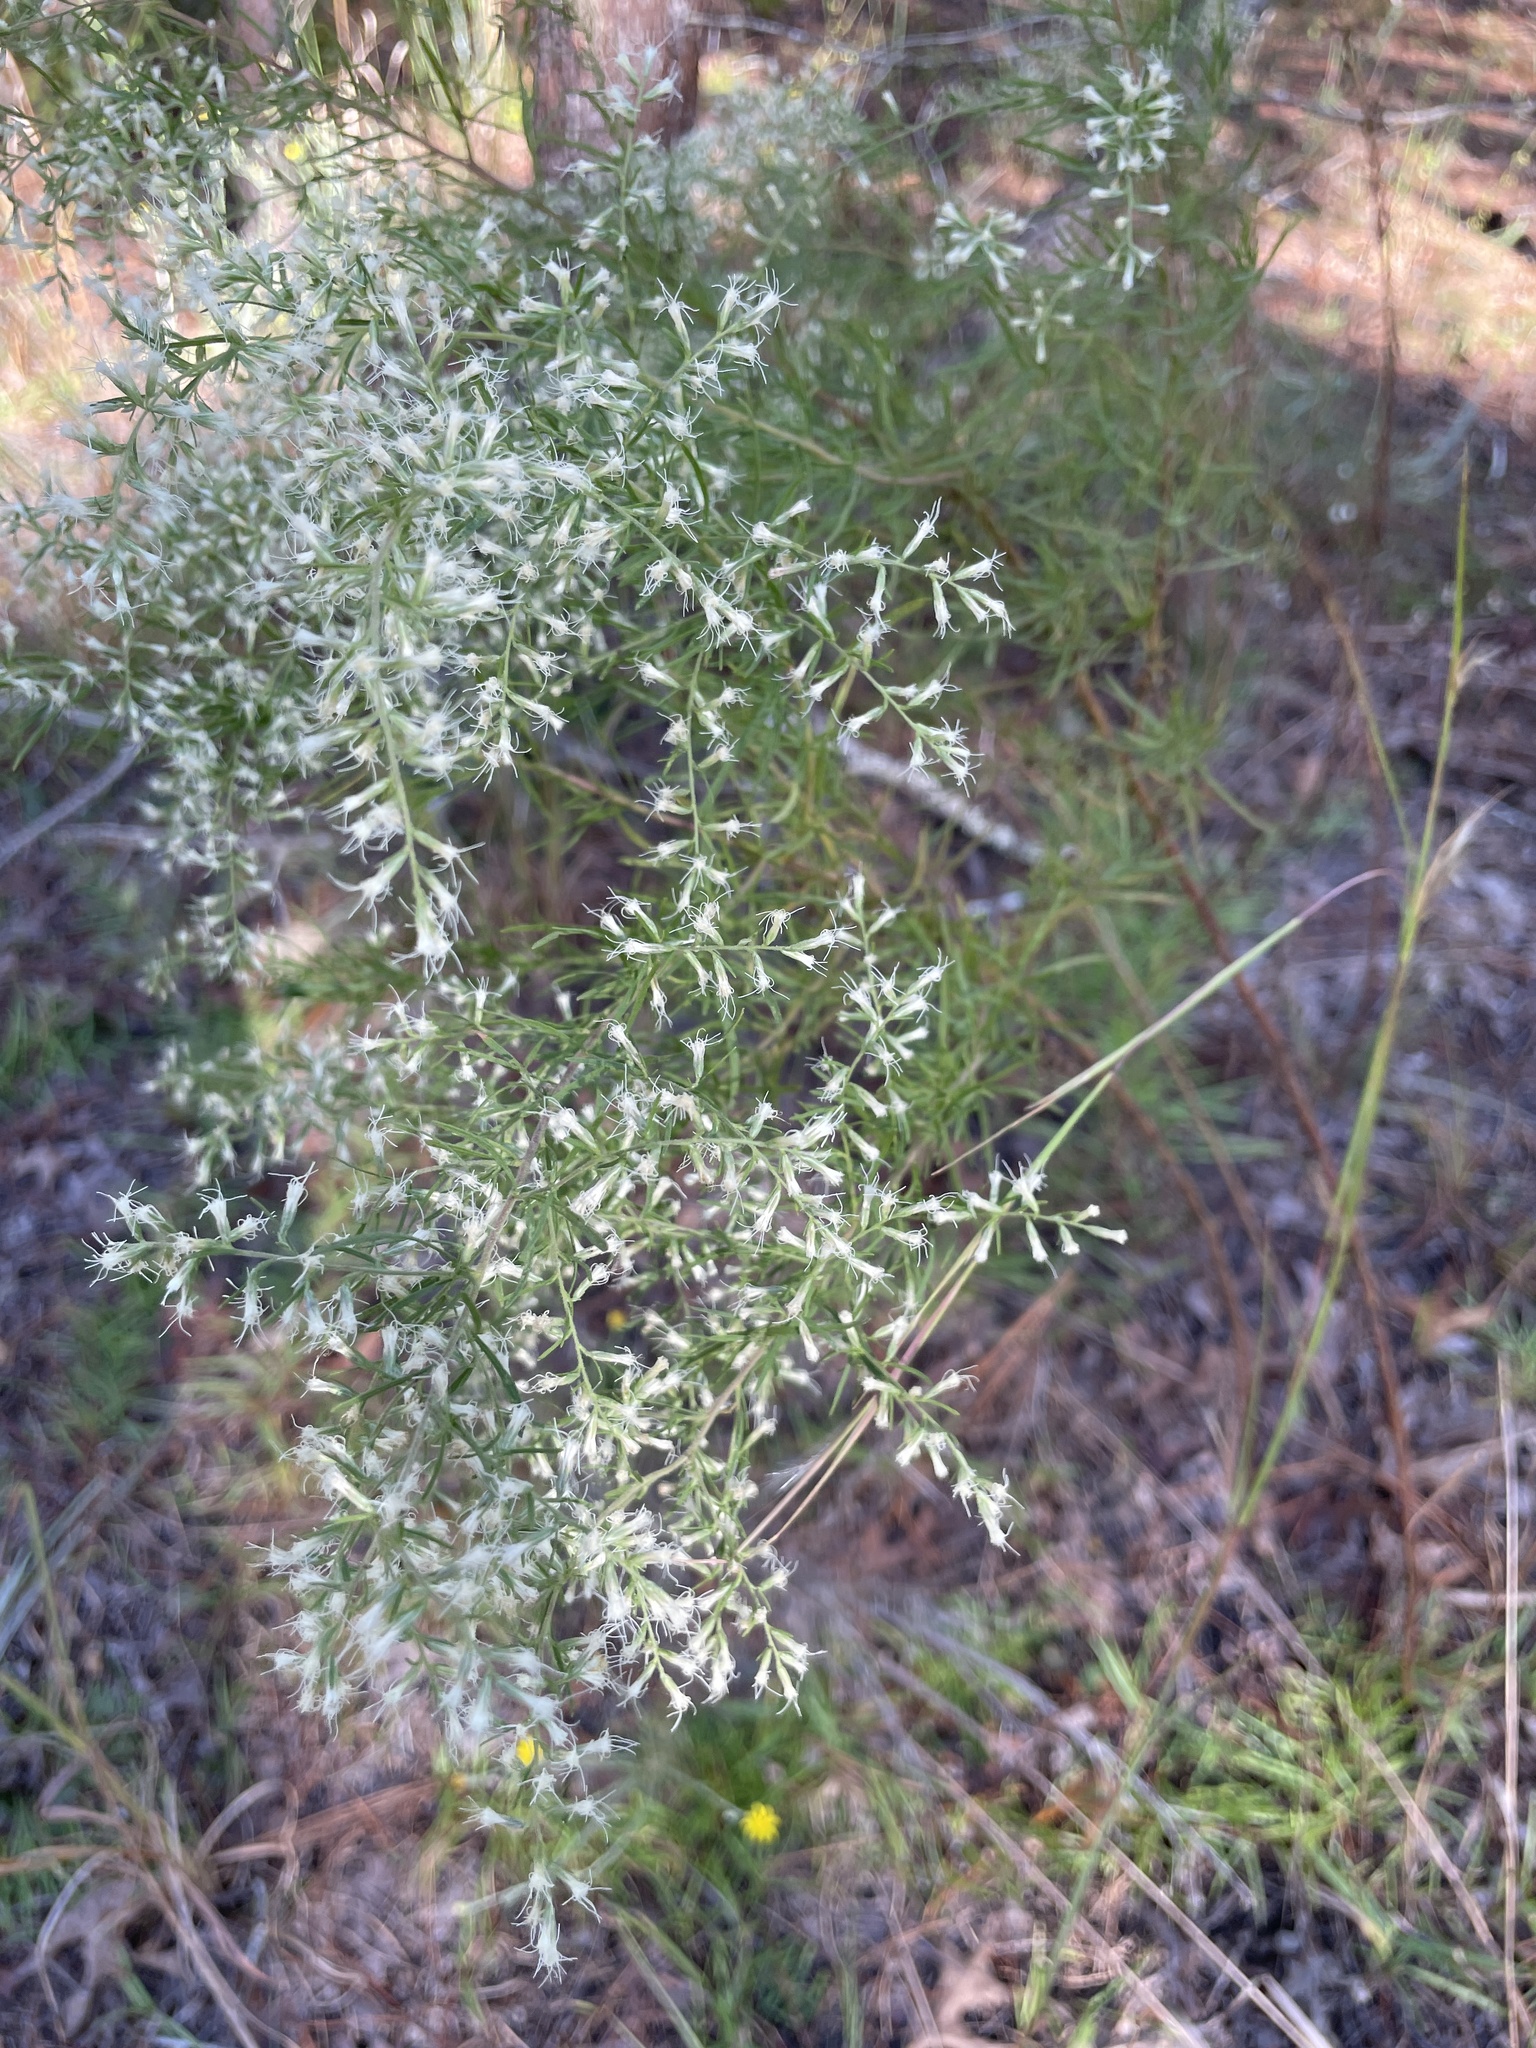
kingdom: Plantae
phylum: Tracheophyta
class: Magnoliopsida
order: Asterales
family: Asteraceae
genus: Eupatorium
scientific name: Eupatorium capillifolium
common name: Dog-fennel
